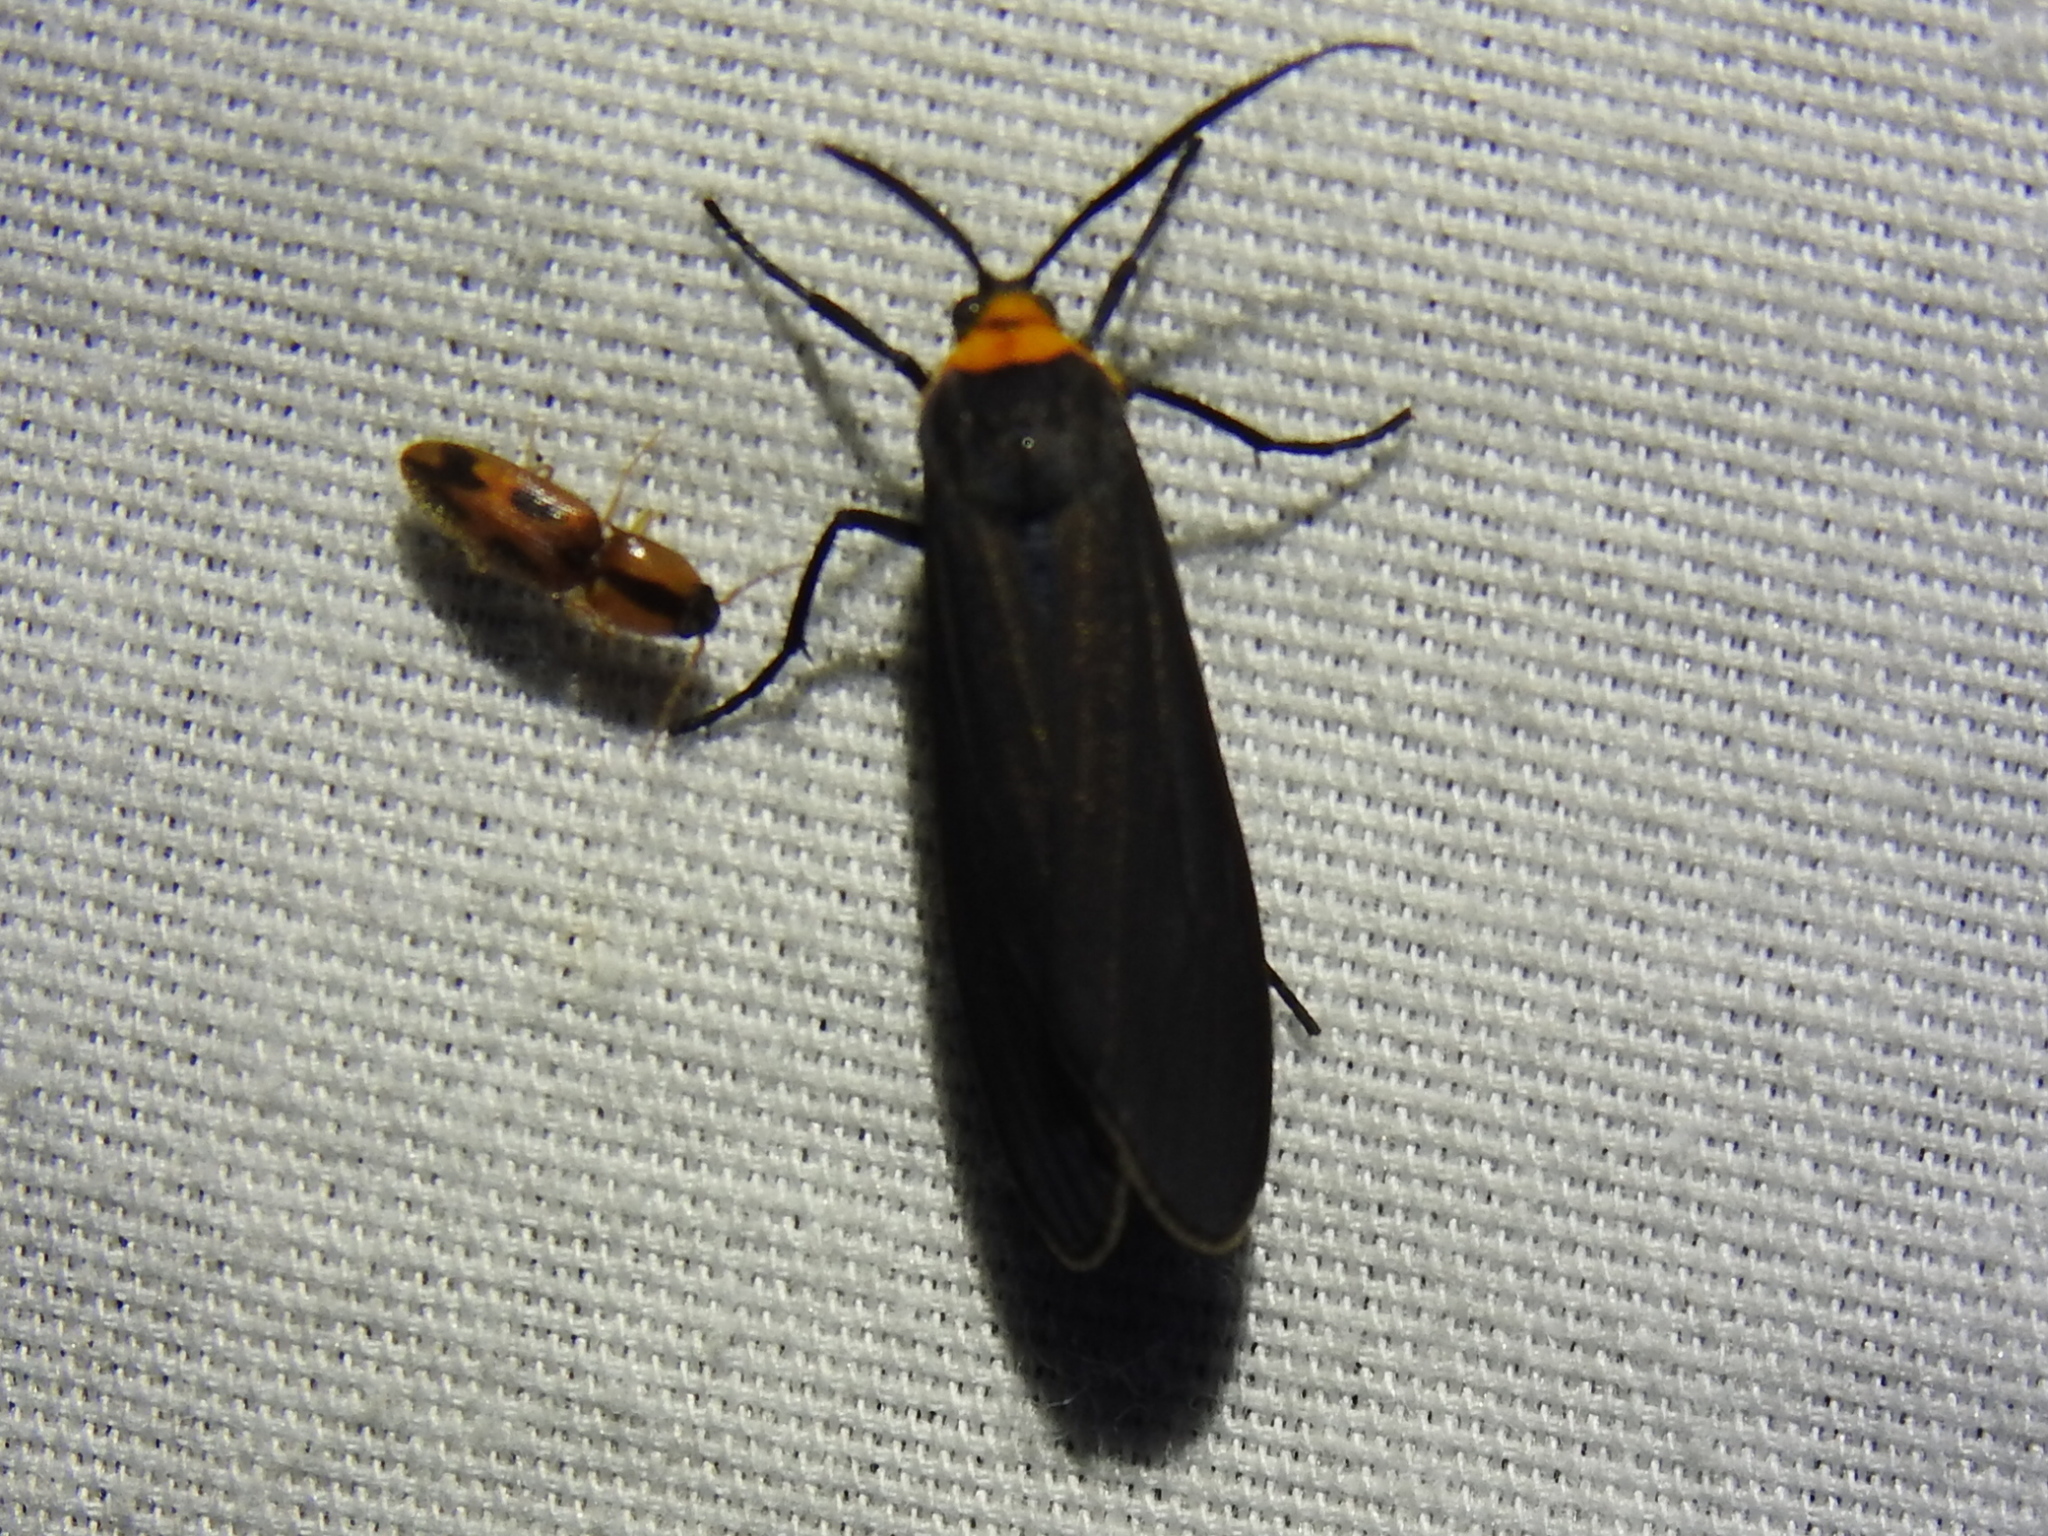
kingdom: Animalia
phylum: Arthropoda
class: Insecta
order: Lepidoptera
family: Erebidae
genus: Cisseps
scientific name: Cisseps fulvicollis
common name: Yellow-collared scape moth
